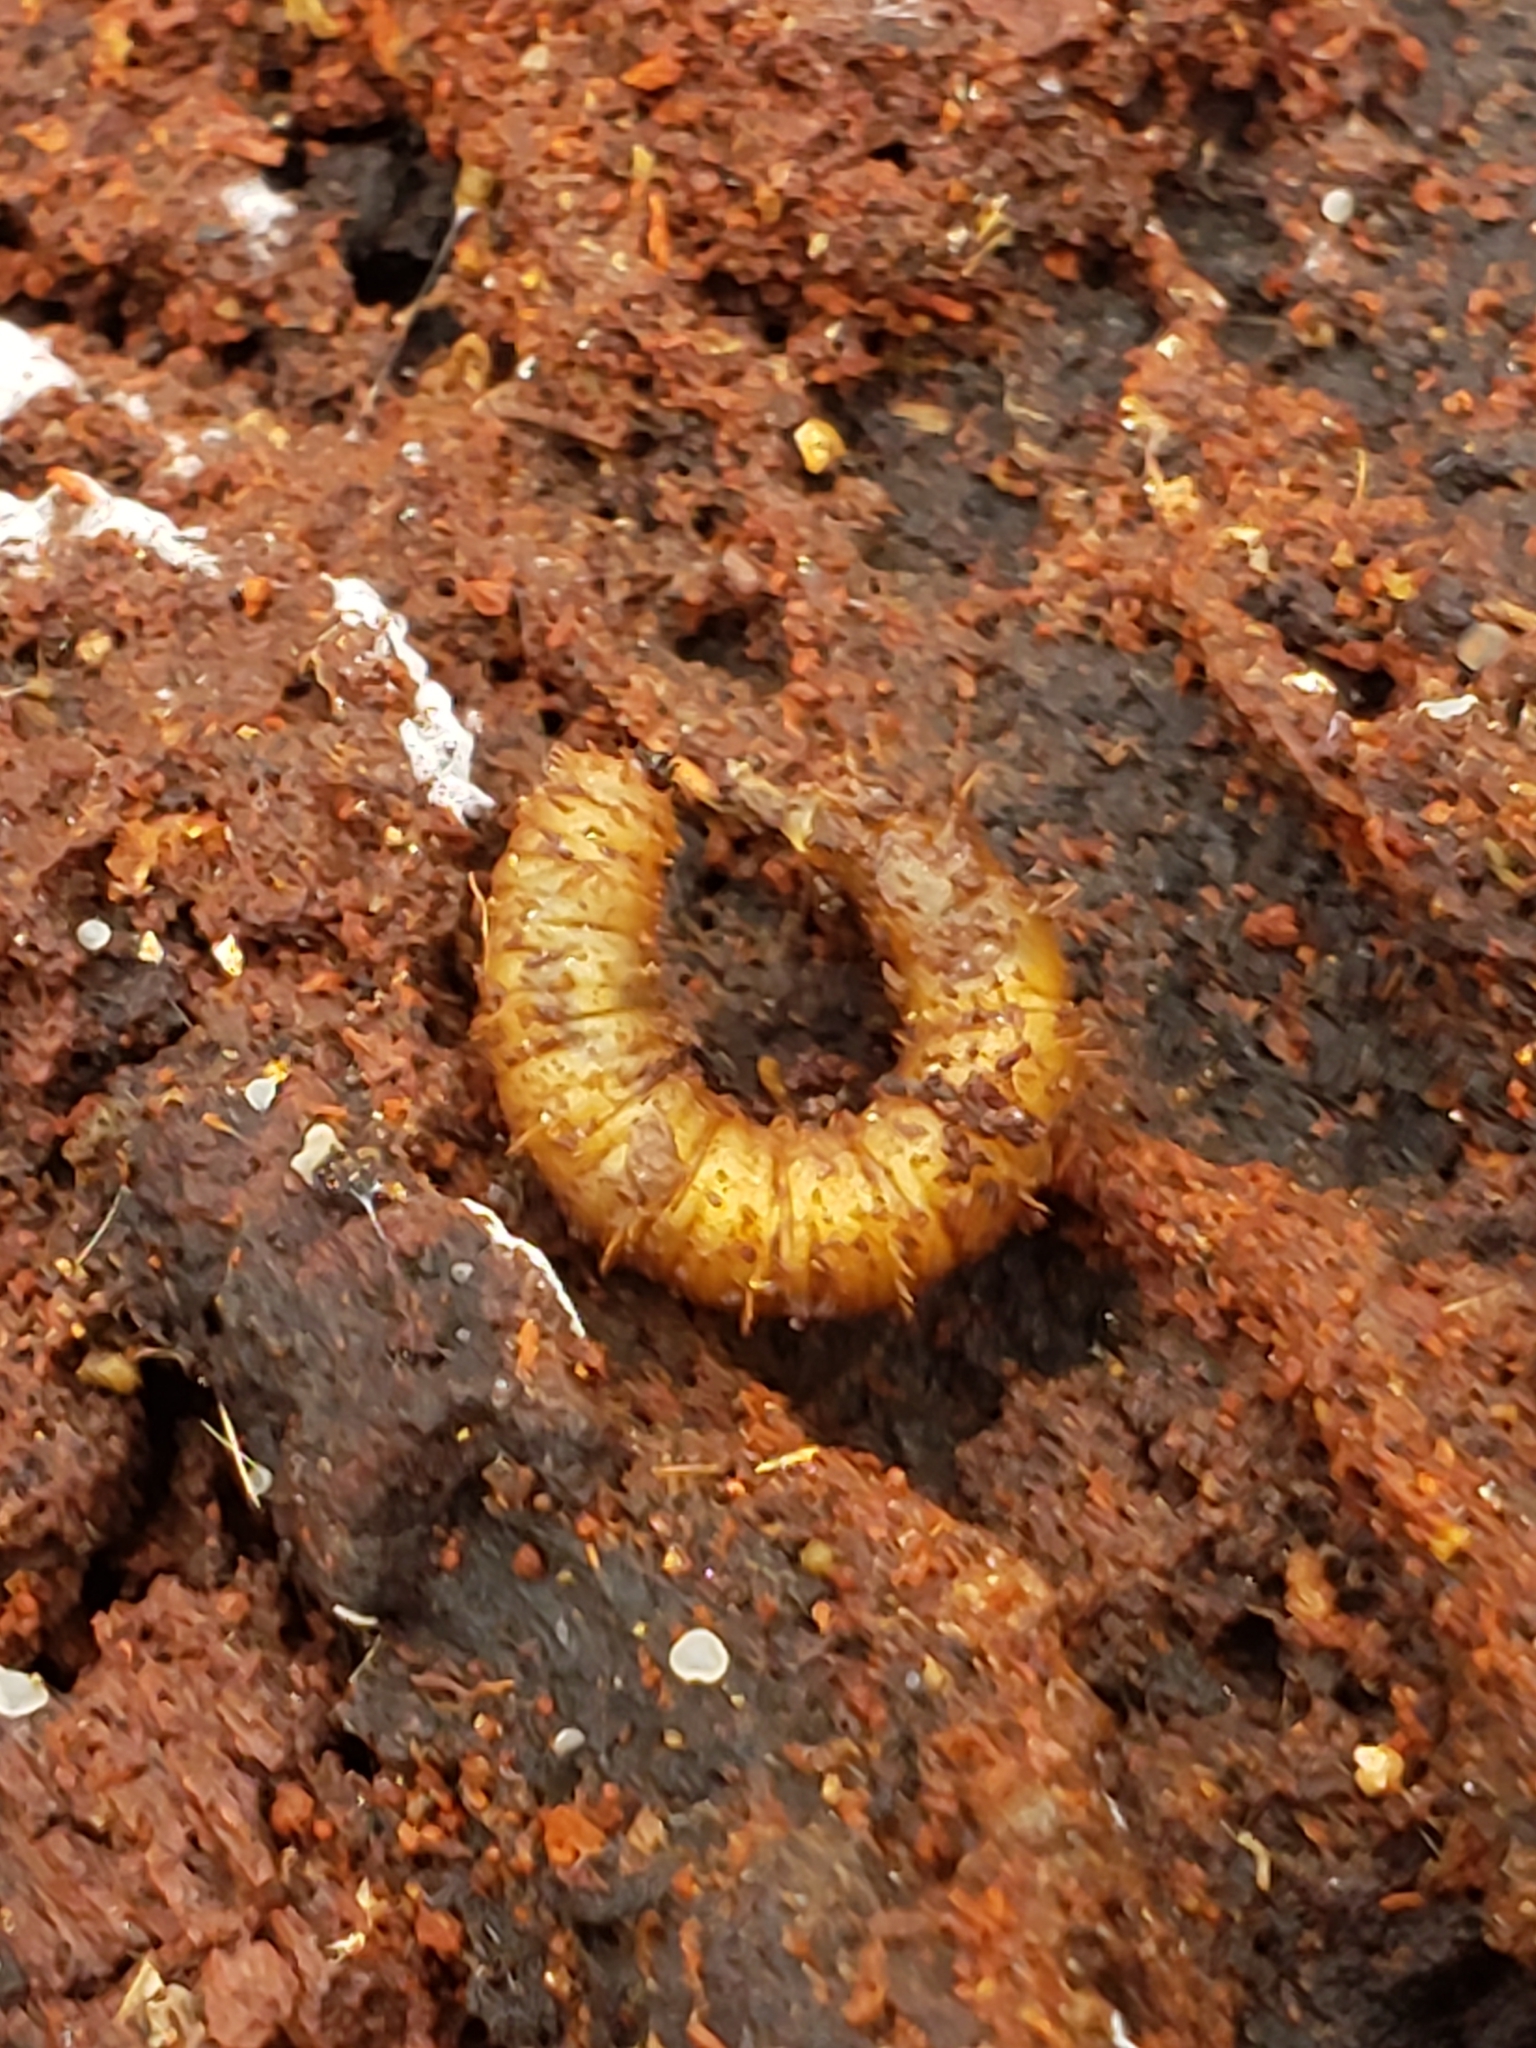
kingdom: Animalia
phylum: Arthropoda
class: Insecta
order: Diptera
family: Bibionidae
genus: Bibio
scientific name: Bibio
